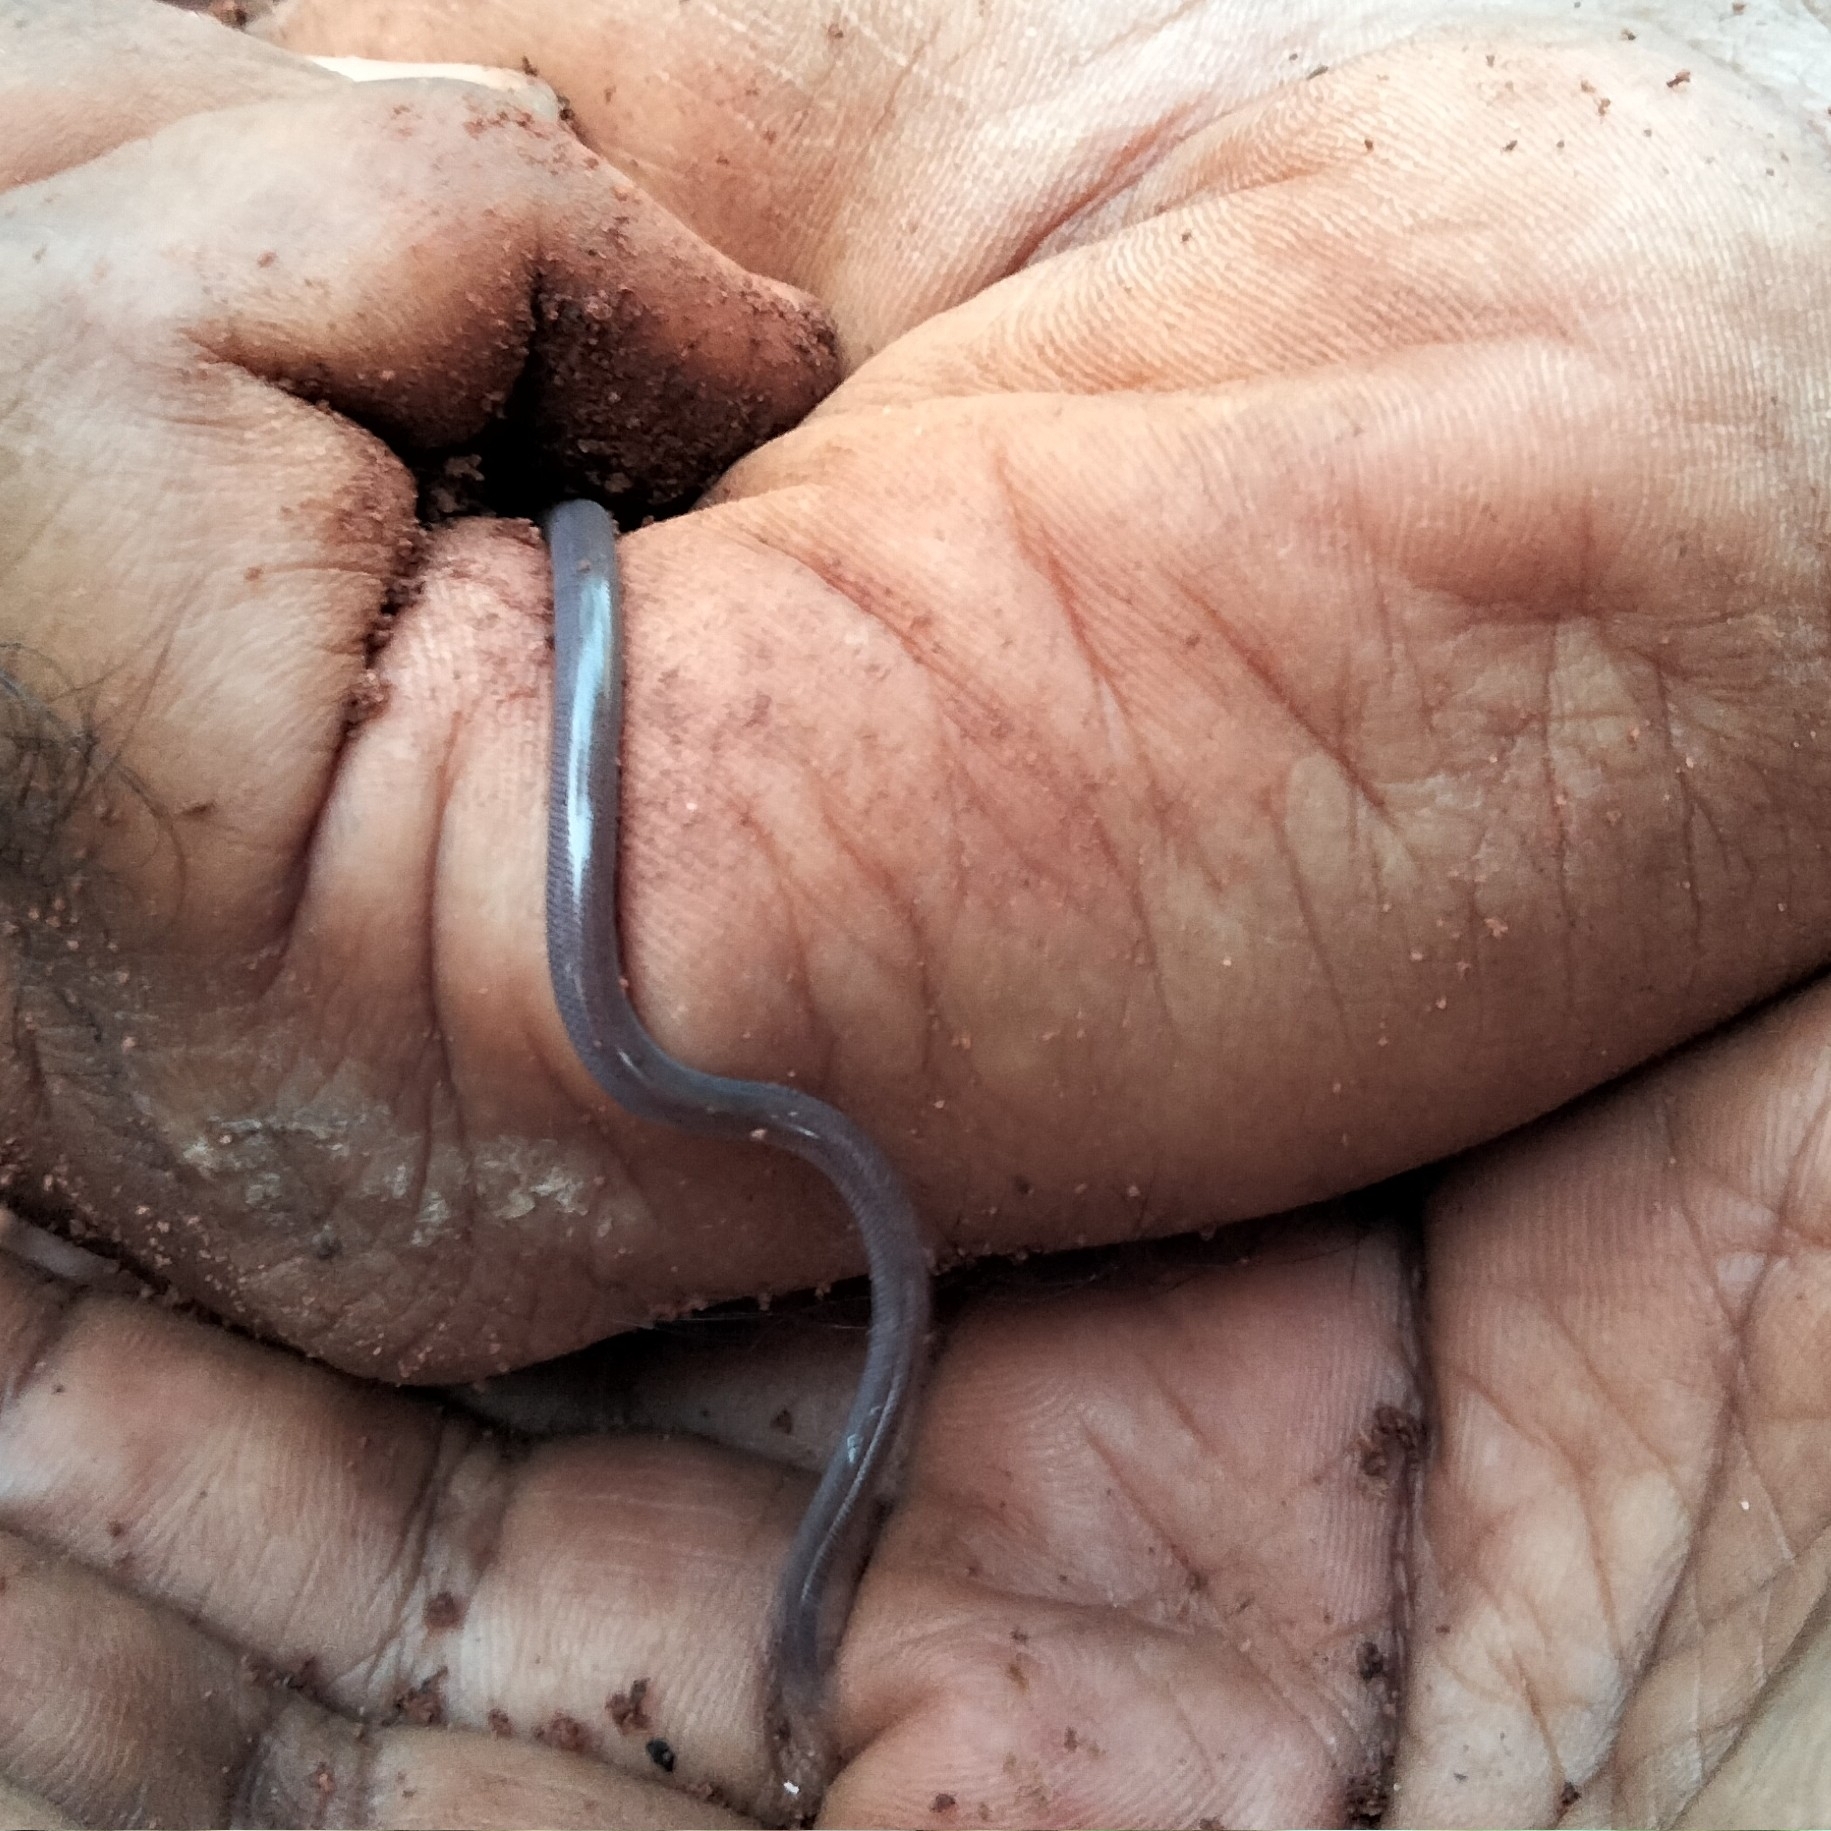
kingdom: Animalia
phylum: Chordata
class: Squamata
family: Typhlopidae
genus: Indotyphlops
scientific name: Indotyphlops braminus
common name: Brahminy blindsnake
